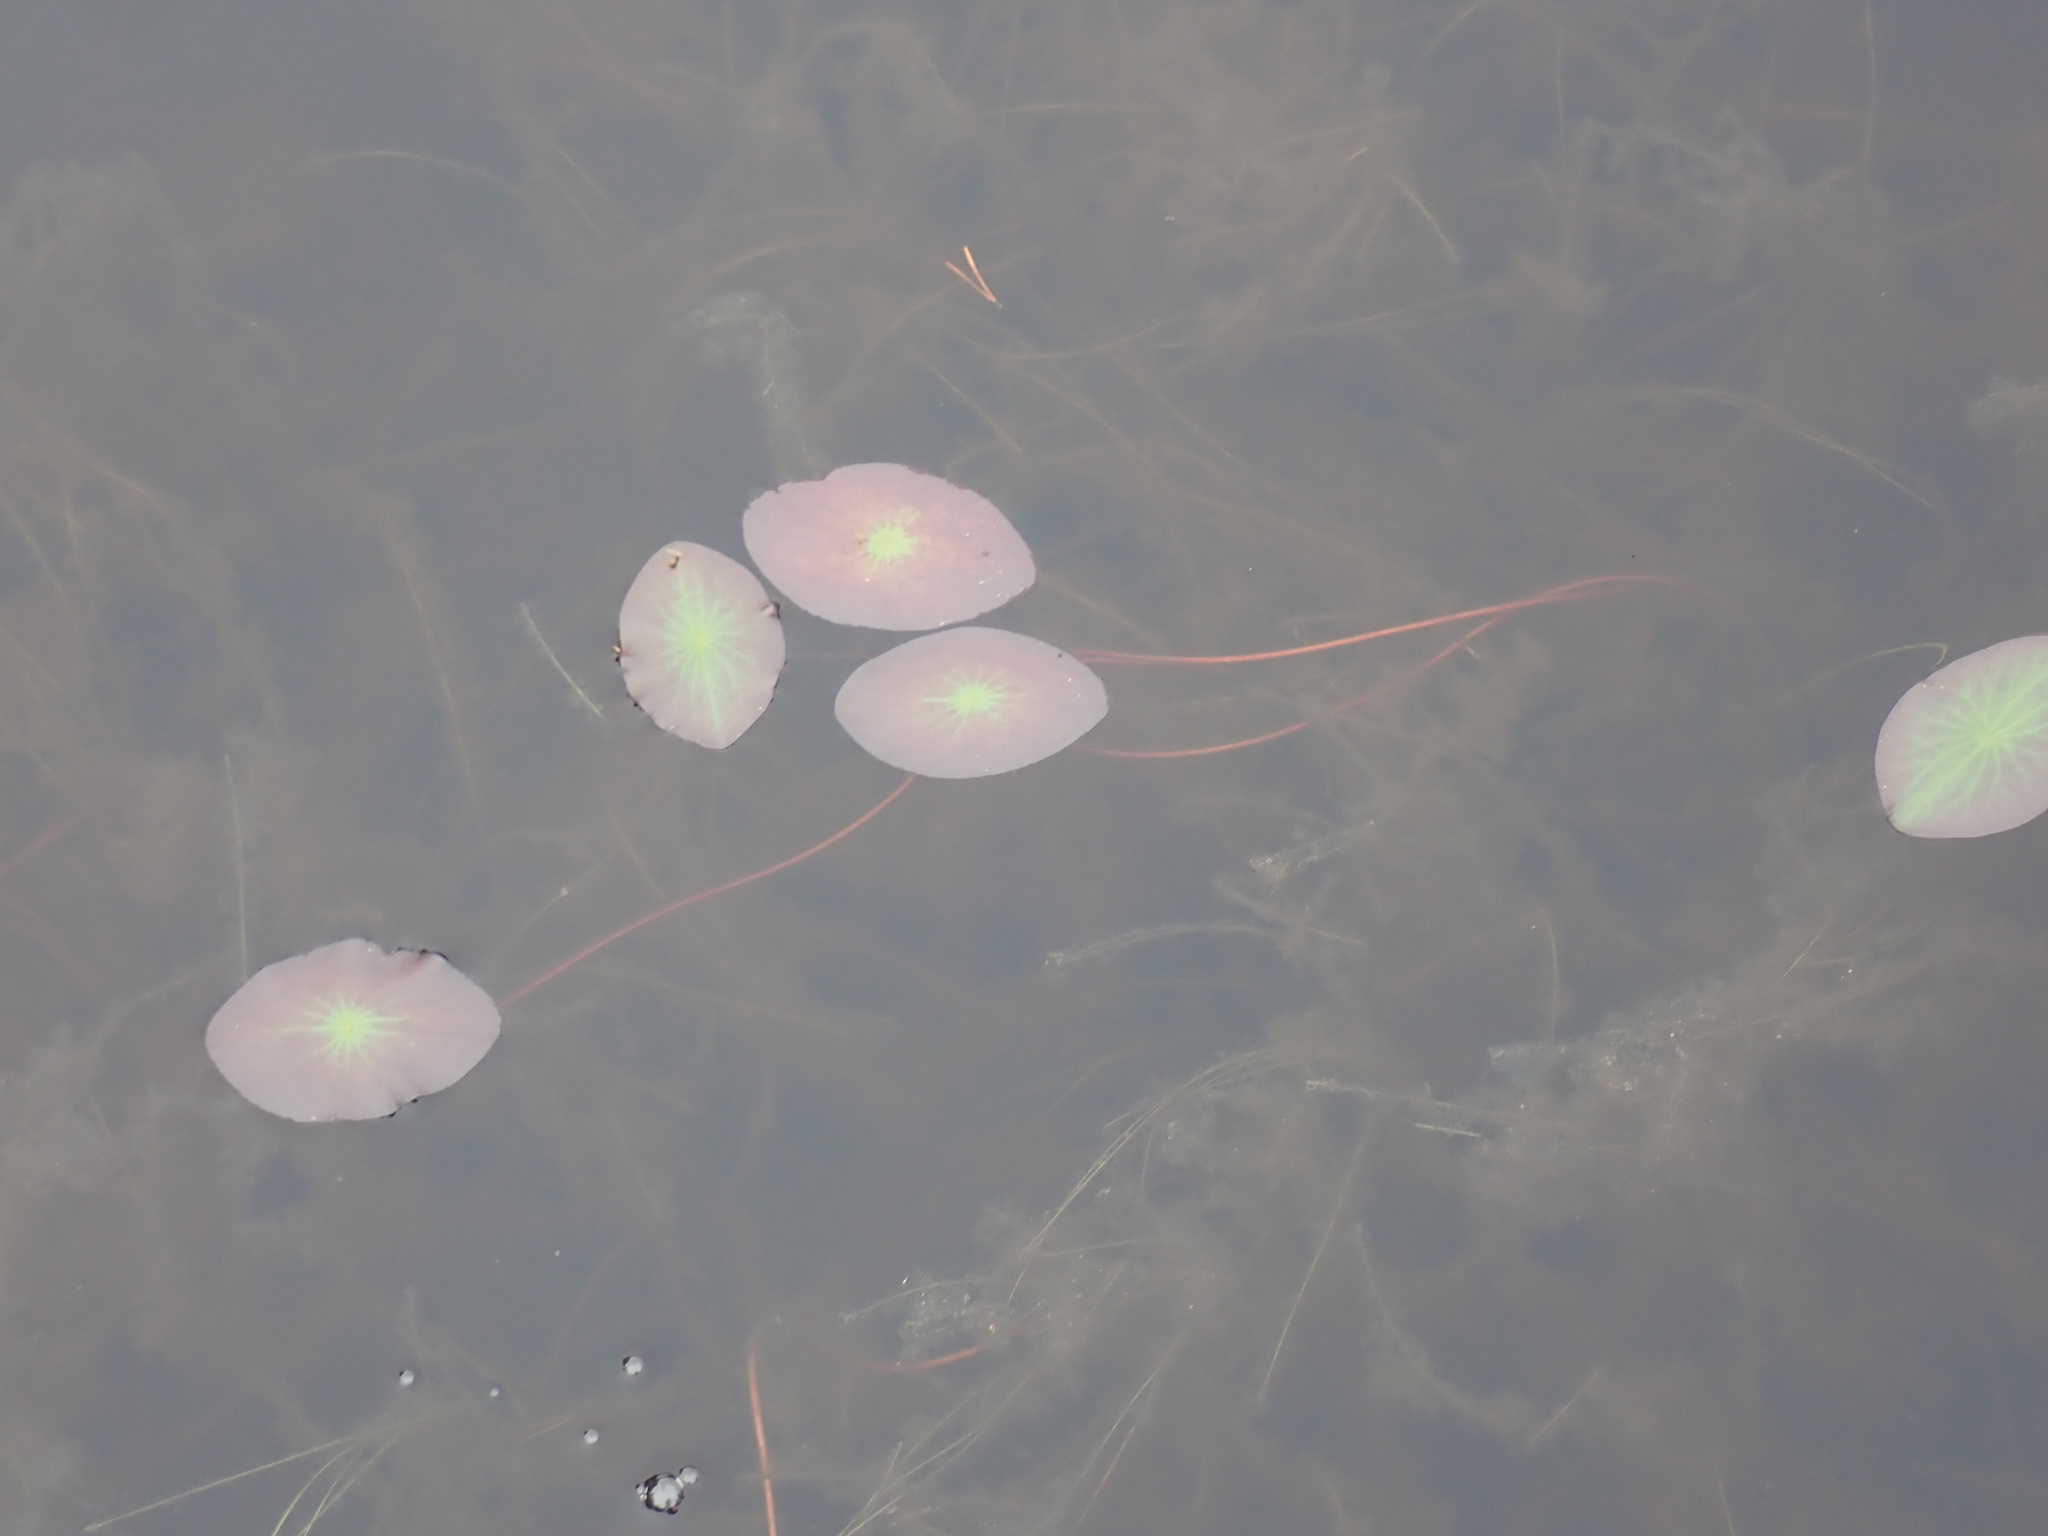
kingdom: Plantae
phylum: Tracheophyta
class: Magnoliopsida
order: Nymphaeales
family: Cabombaceae
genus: Brasenia
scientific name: Brasenia schreberi
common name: Water-shield
